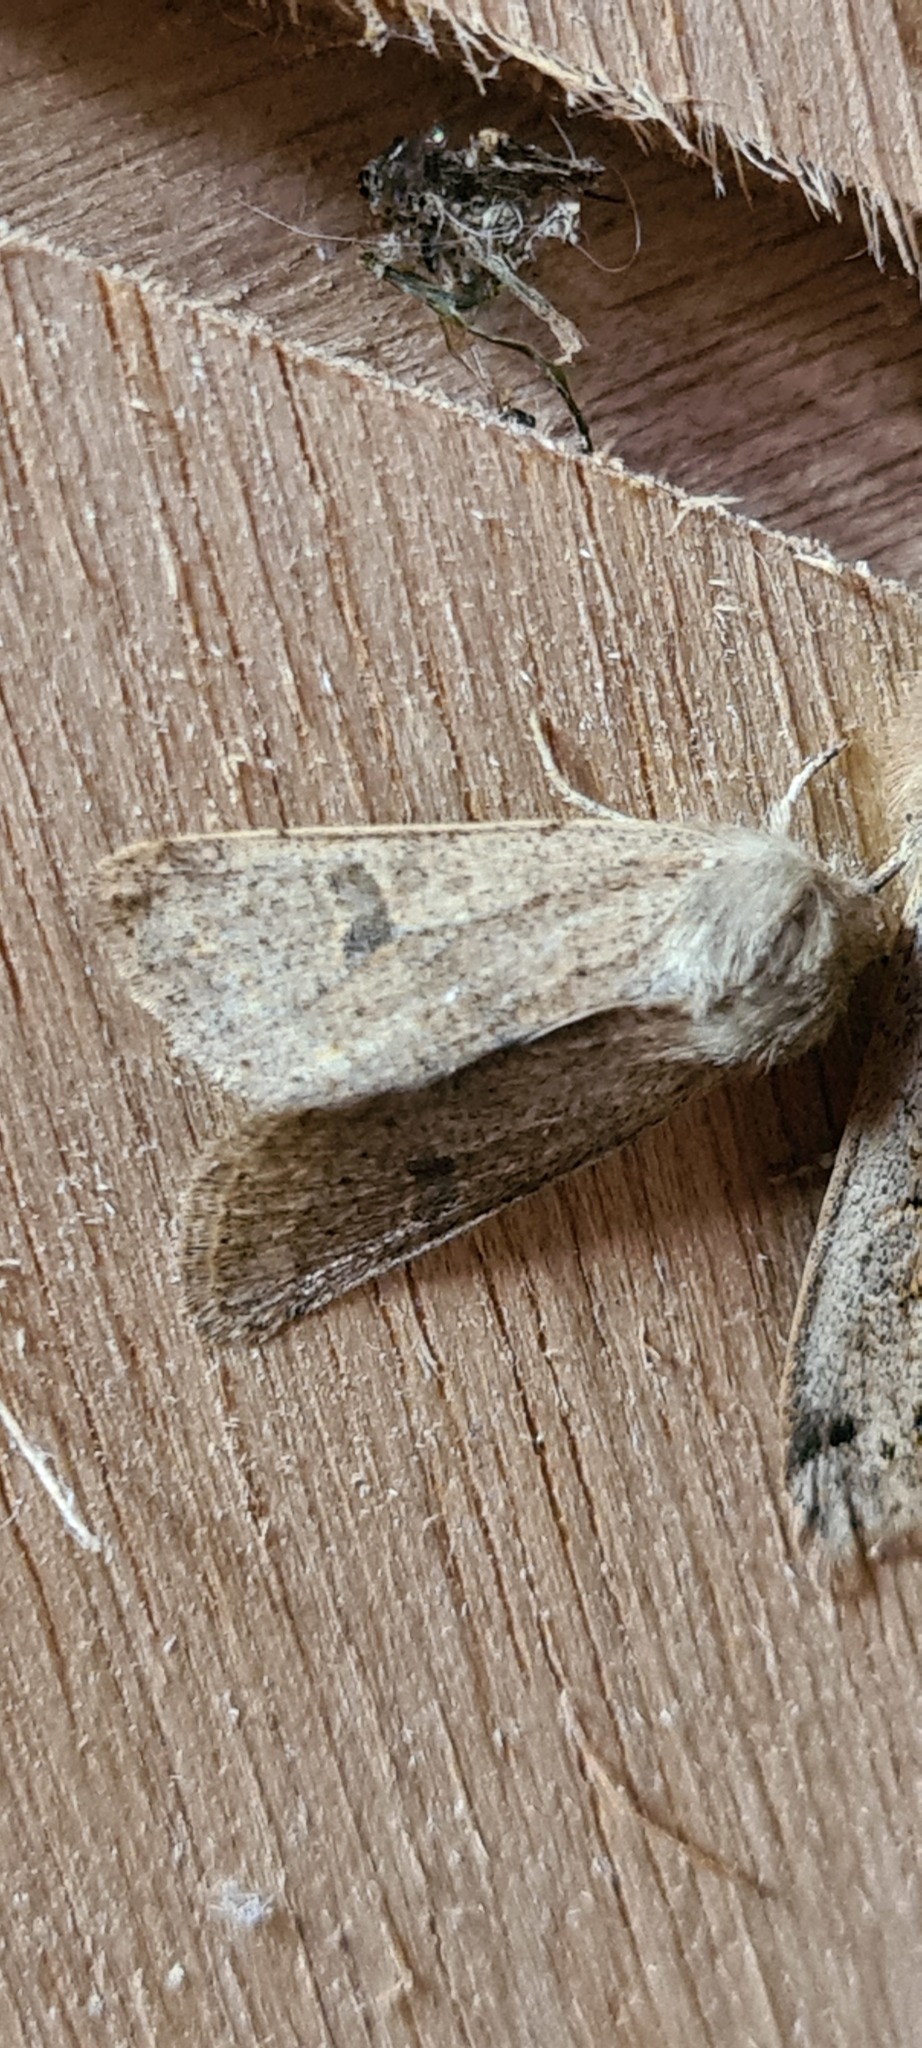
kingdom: Animalia
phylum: Arthropoda
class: Insecta
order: Lepidoptera
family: Noctuidae
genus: Orthosia
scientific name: Orthosia cruda
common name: Small quaker
